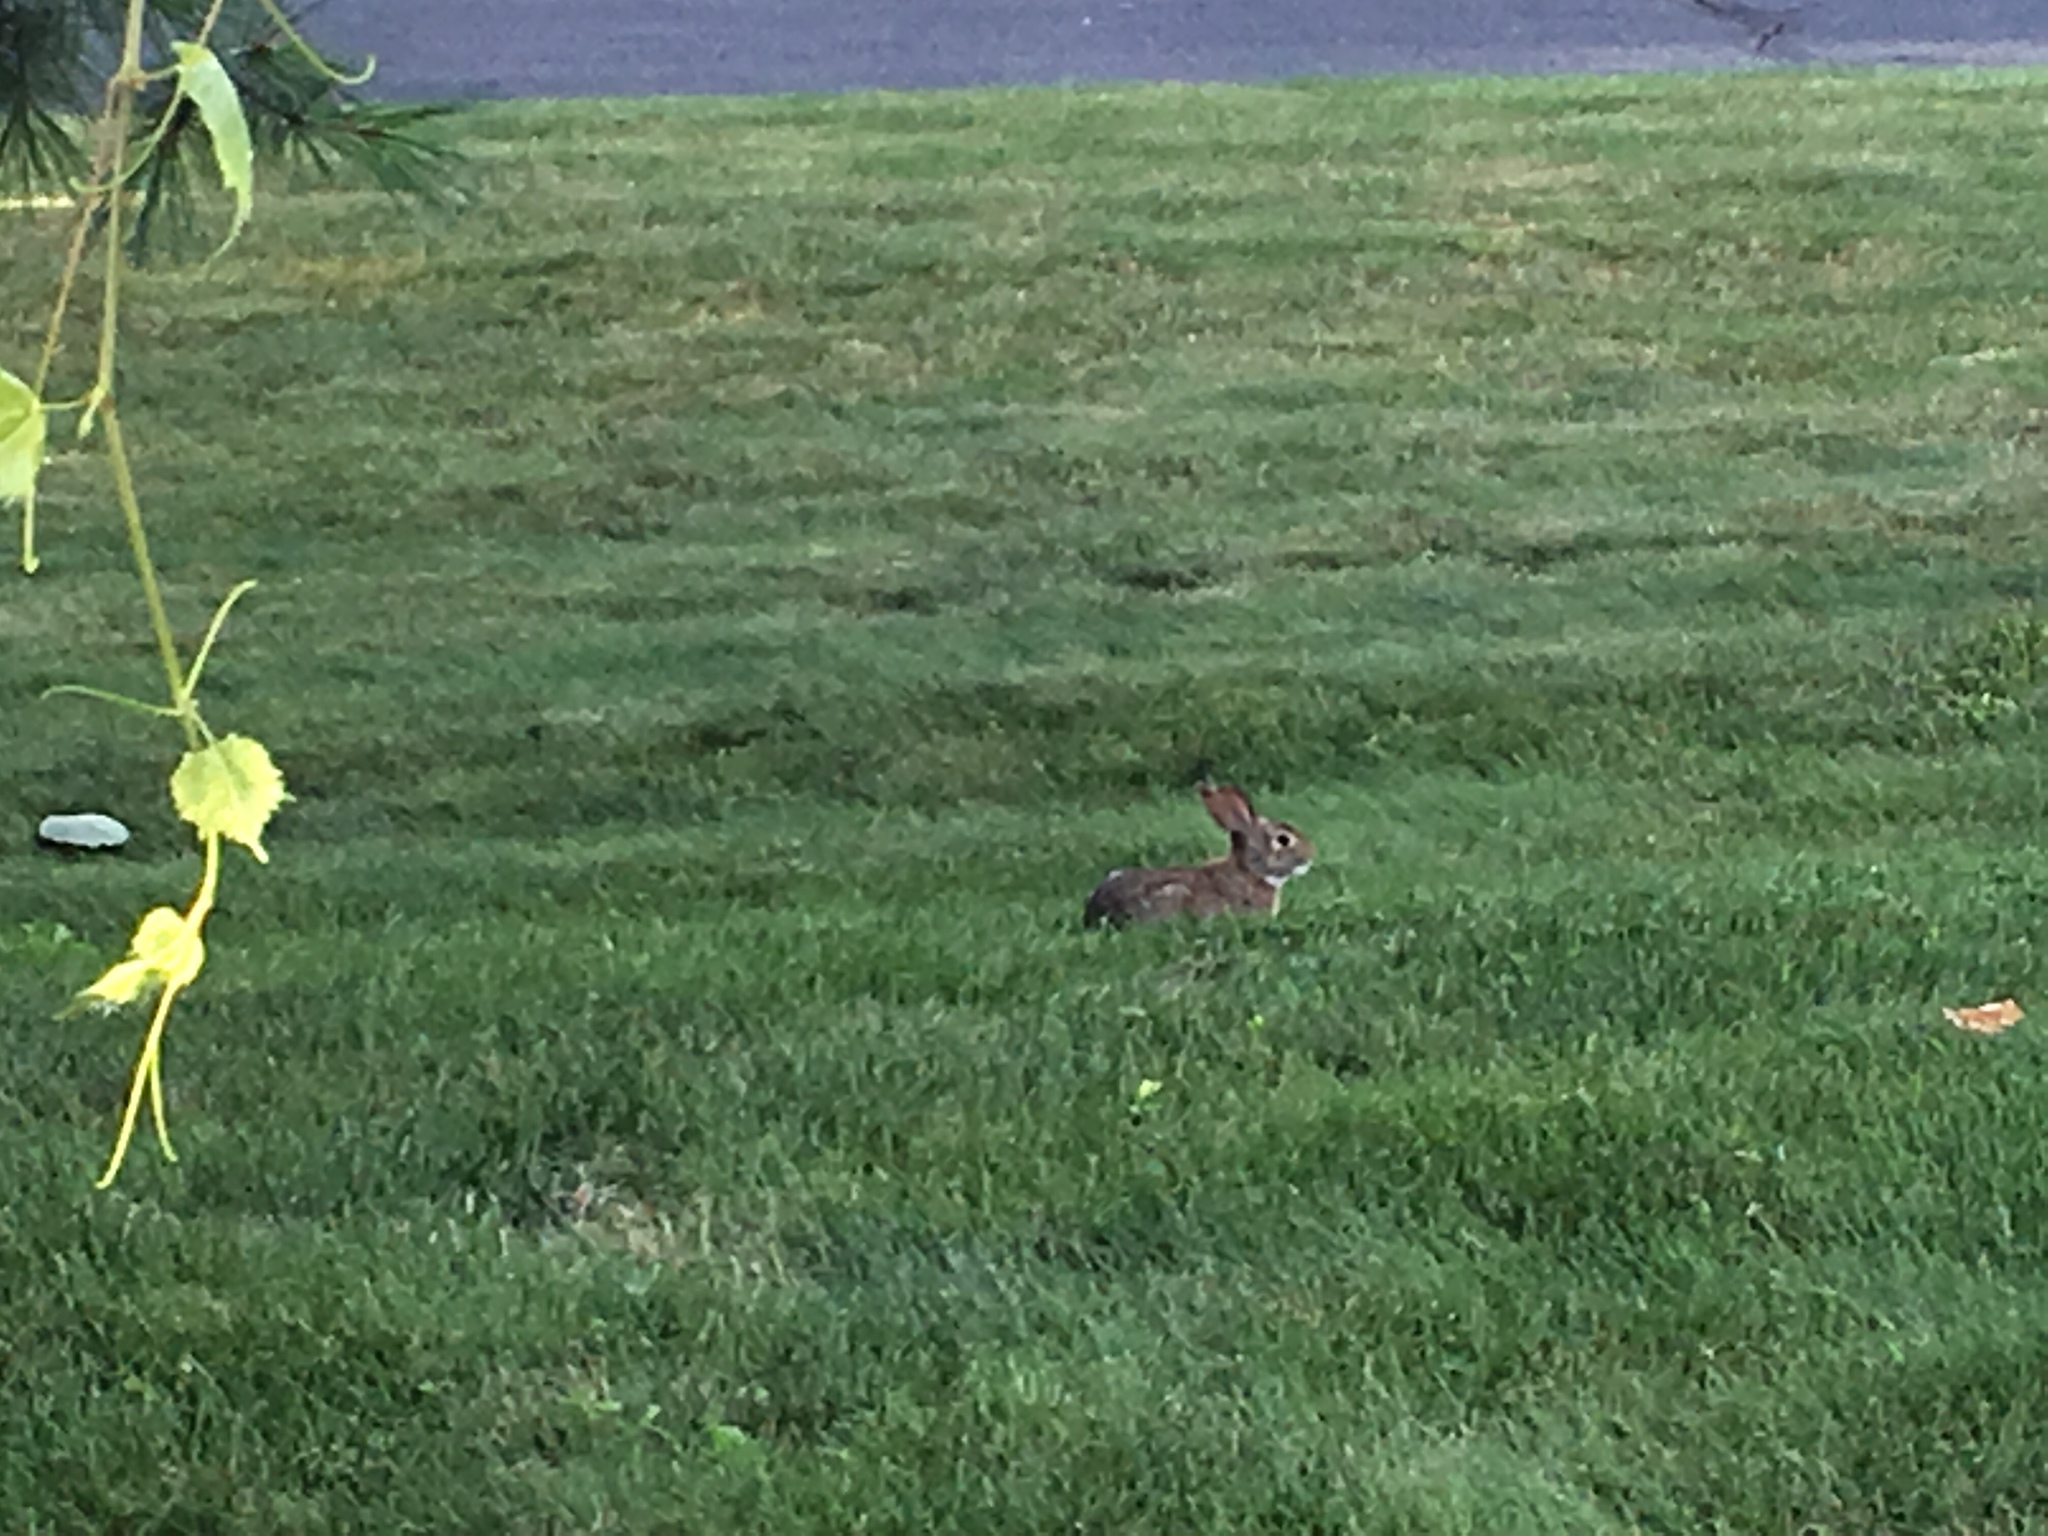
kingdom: Animalia
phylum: Chordata
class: Mammalia
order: Lagomorpha
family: Leporidae
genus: Sylvilagus
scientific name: Sylvilagus floridanus
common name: Eastern cottontail
